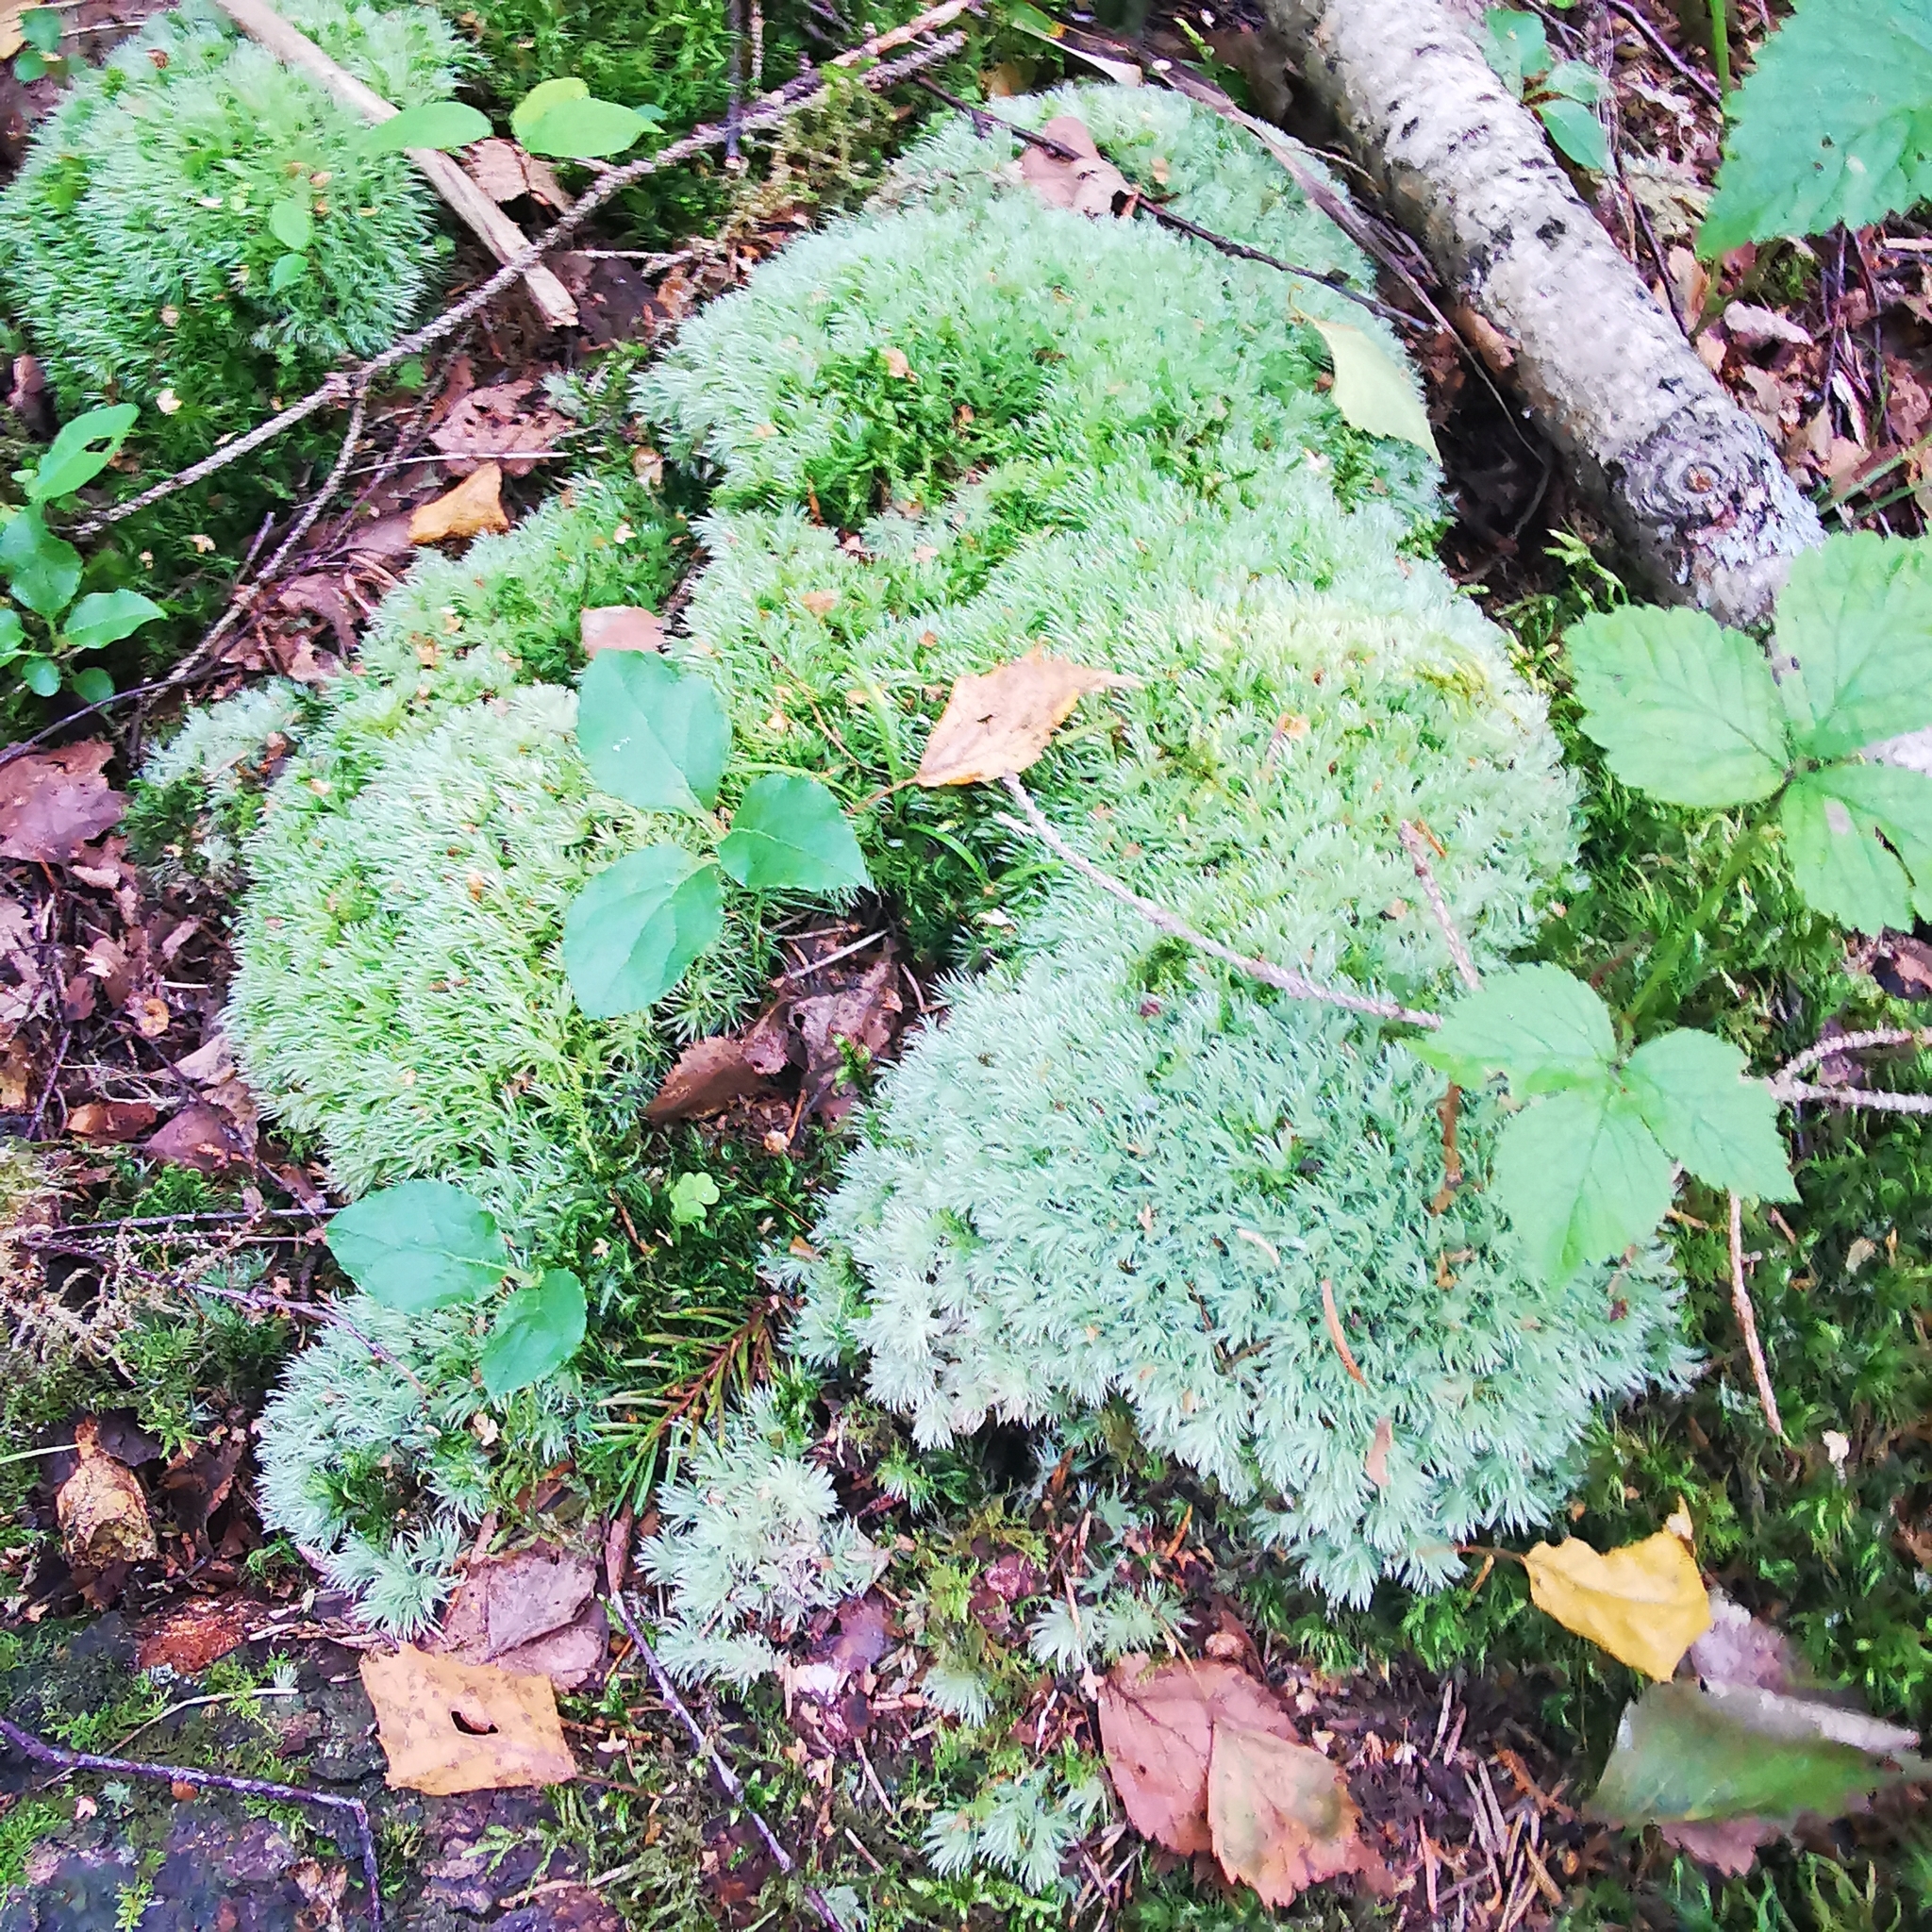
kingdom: Plantae
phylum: Bryophyta
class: Bryopsida
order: Dicranales
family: Leucobryaceae
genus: Leucobryum
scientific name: Leucobryum glaucum
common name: Large white-moss
